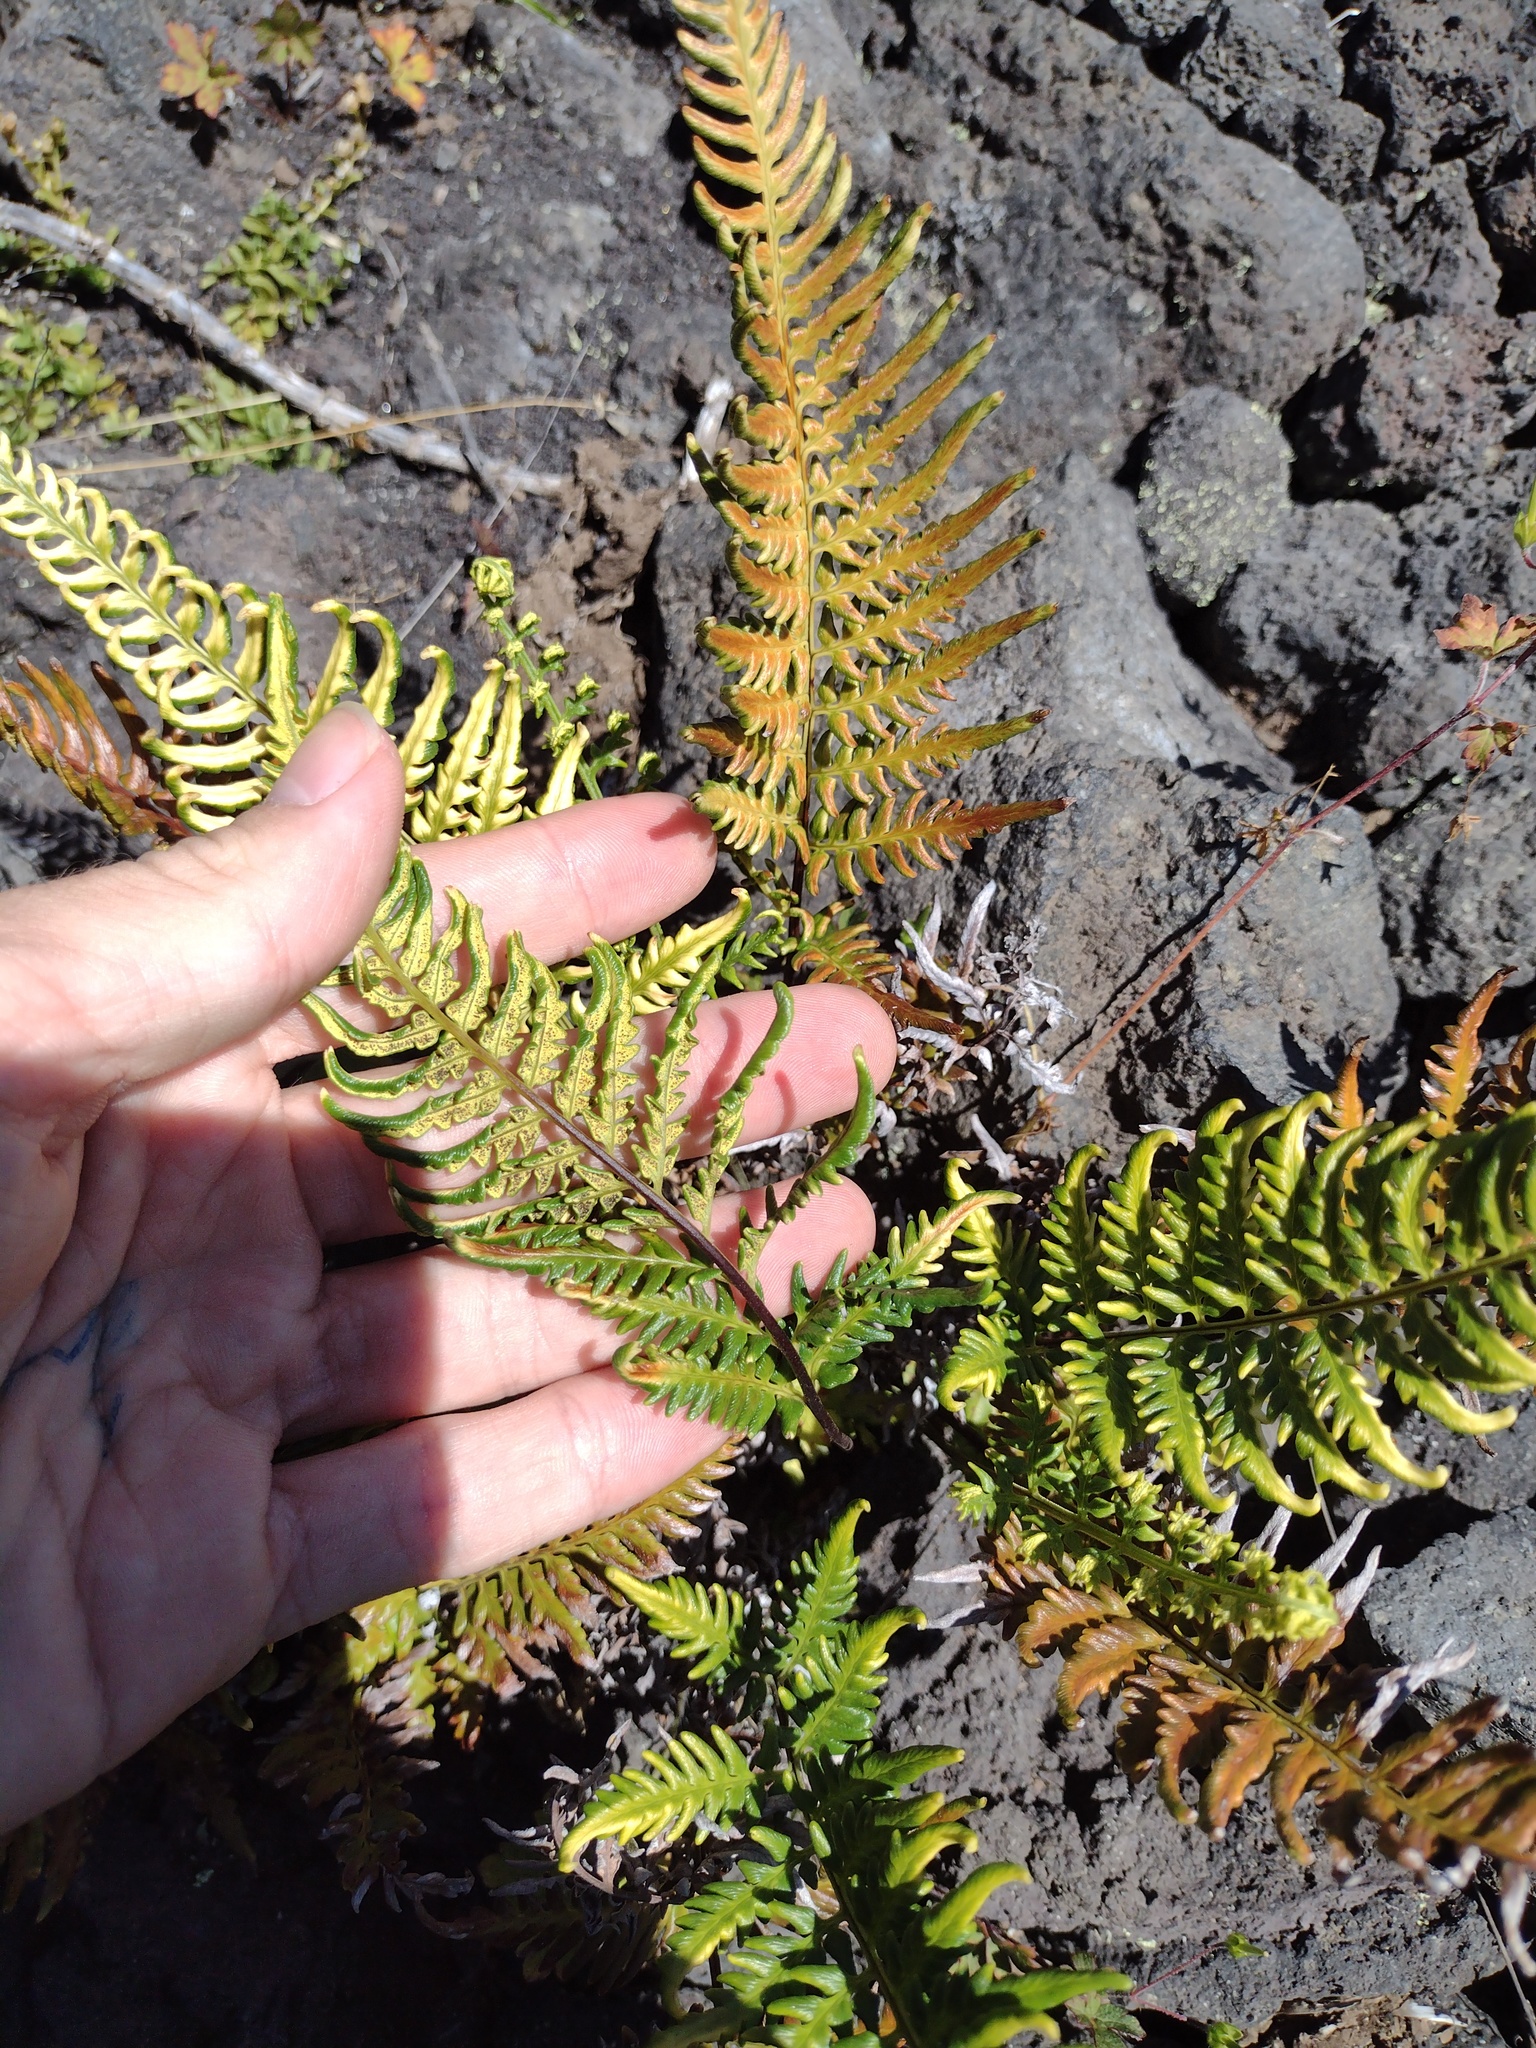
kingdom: Plantae
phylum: Tracheophyta
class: Polypodiopsida
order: Polypodiales
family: Pteridaceae
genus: Pityrogramma
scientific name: Pityrogramma austroamericana
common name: Leatherleaf goldback fern
